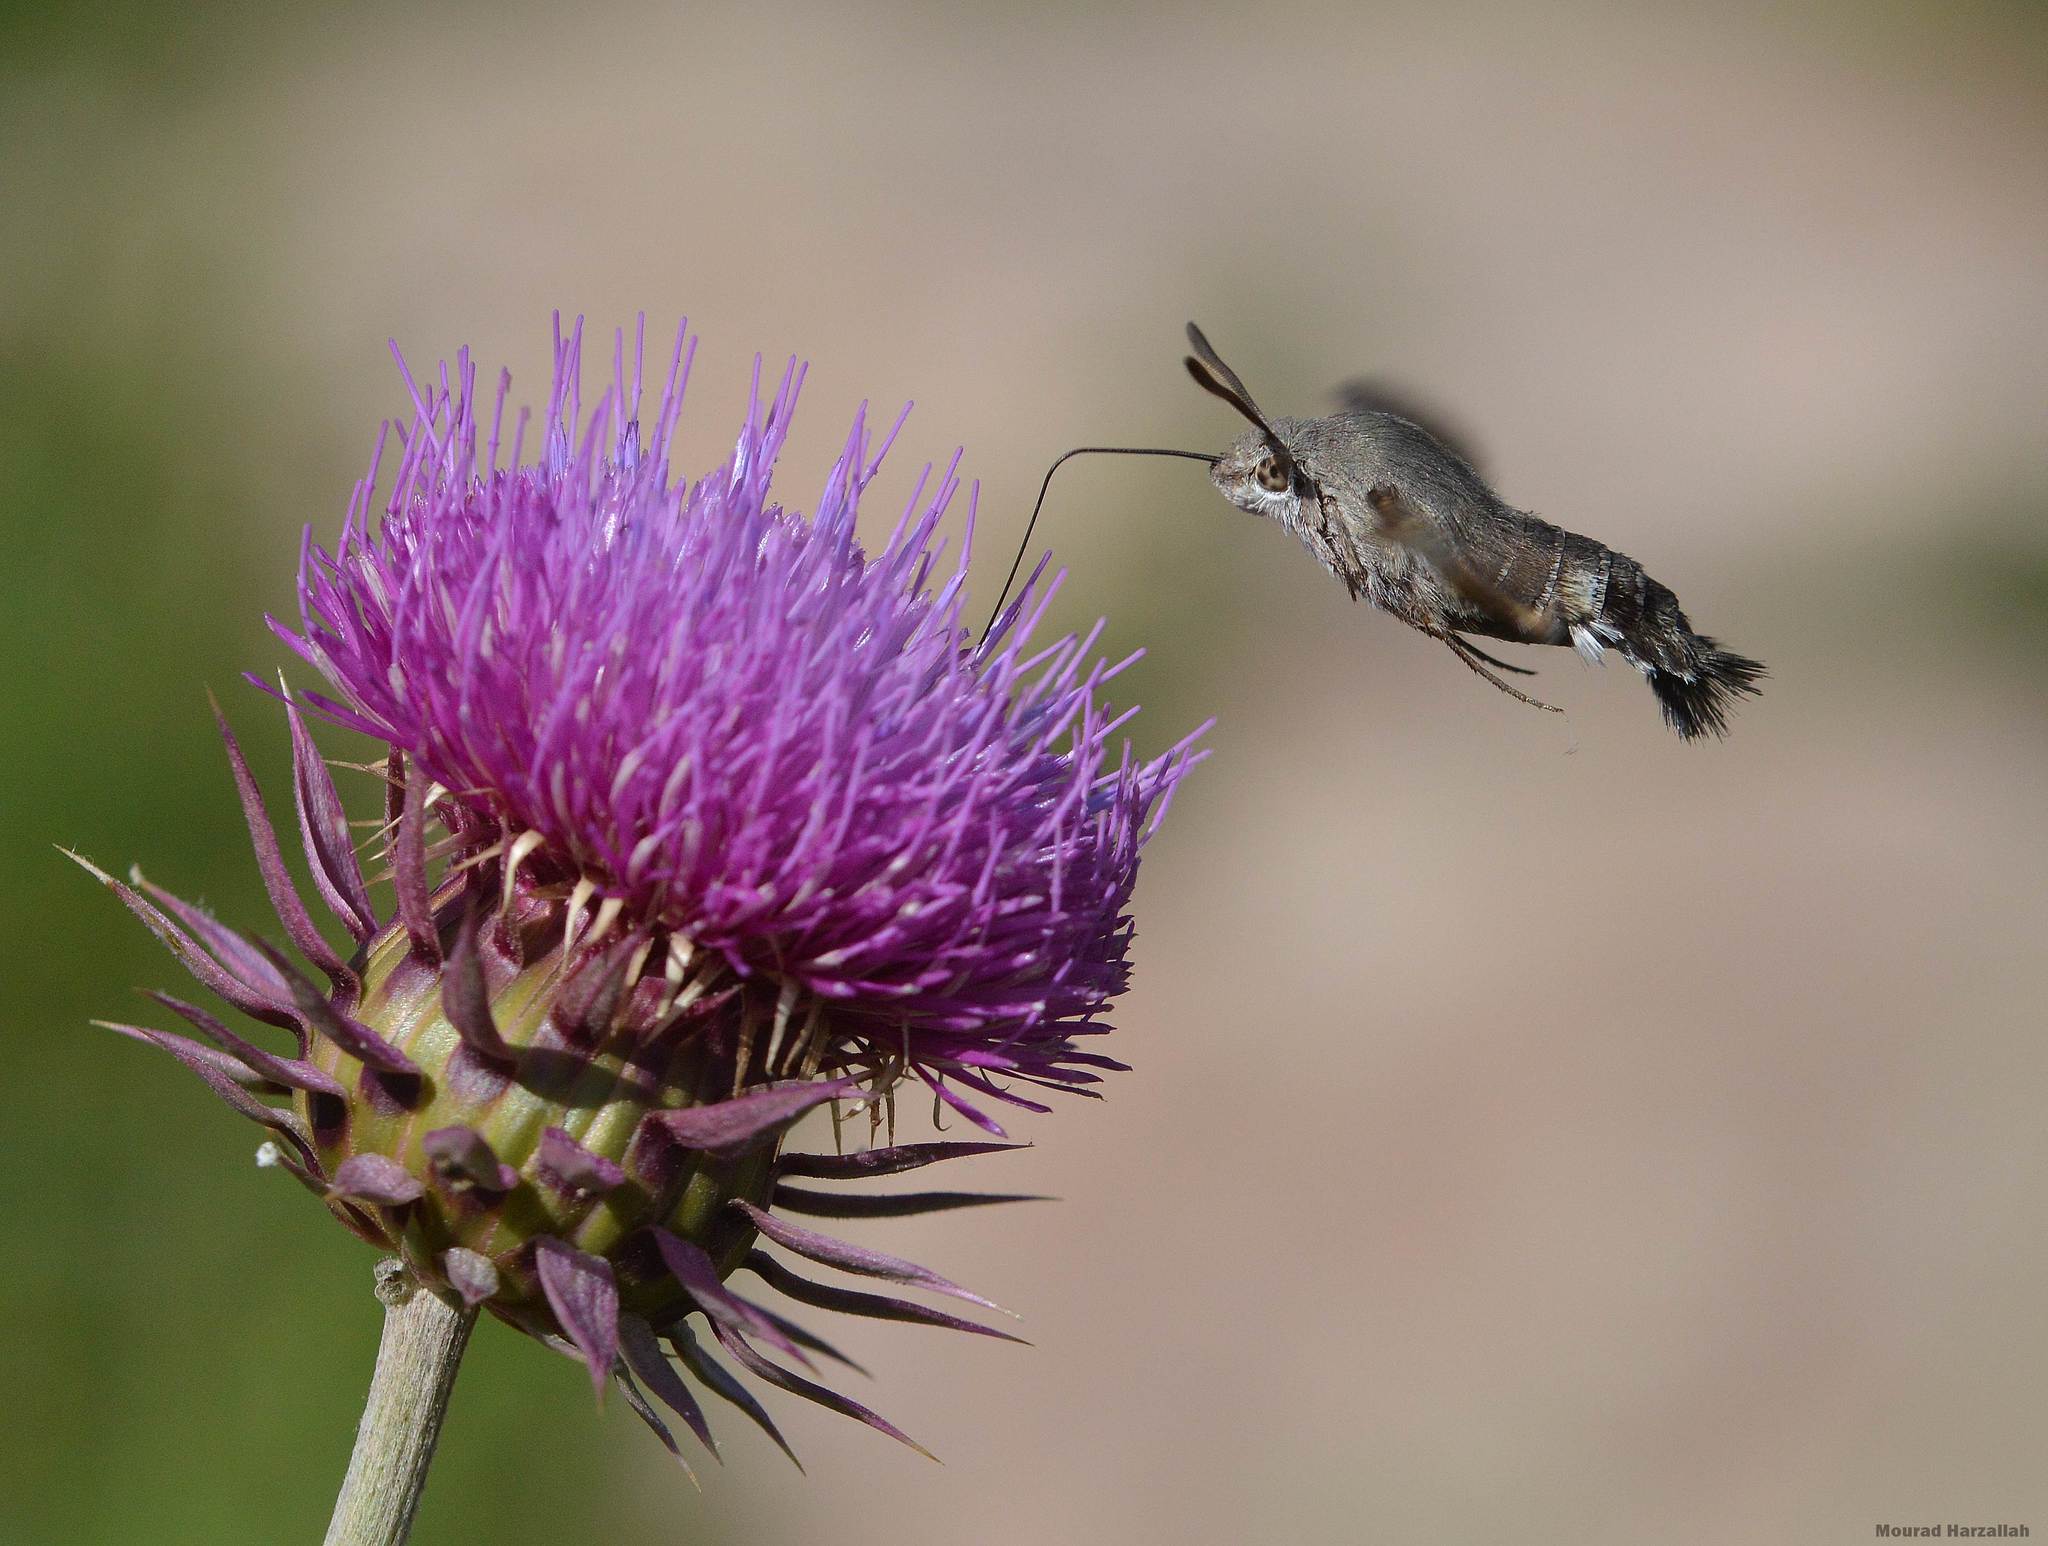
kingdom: Animalia
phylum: Arthropoda
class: Insecta
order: Lepidoptera
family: Sphingidae
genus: Macroglossum
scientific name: Macroglossum stellatarum
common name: Humming-bird hawk-moth
